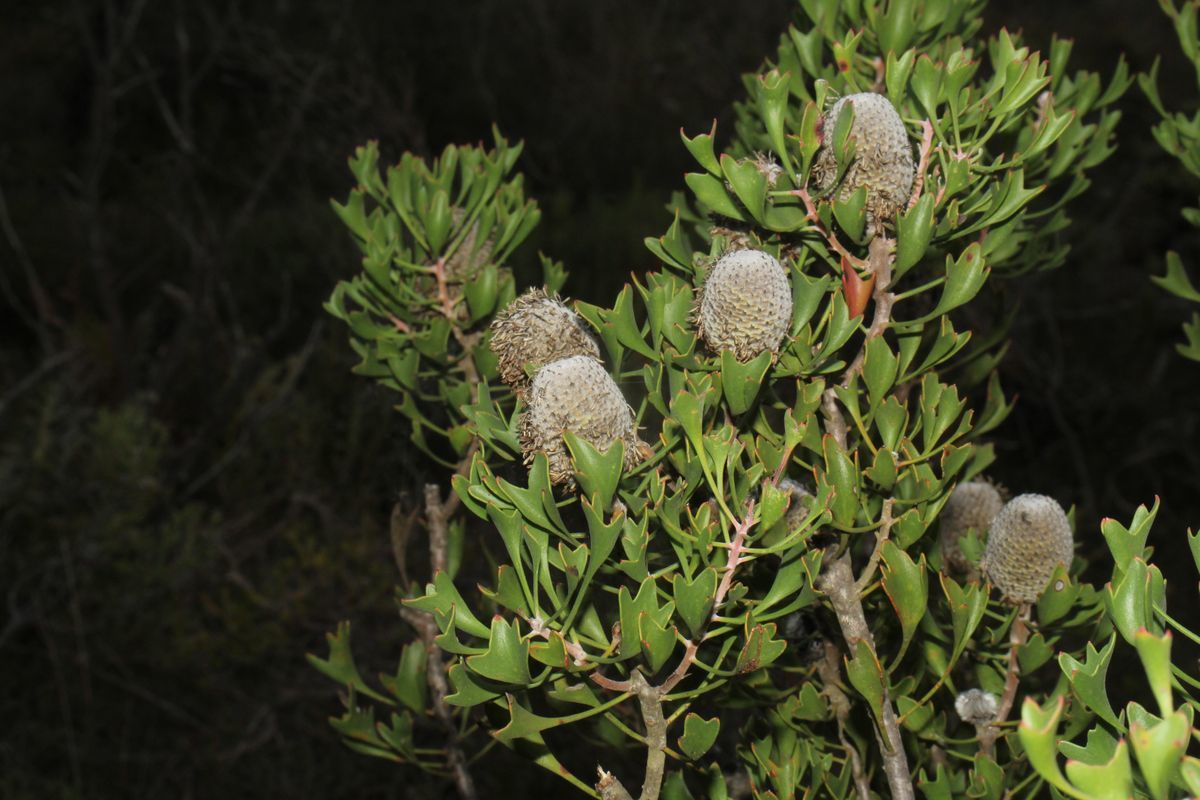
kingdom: Plantae
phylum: Tracheophyta
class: Magnoliopsida
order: Proteales
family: Proteaceae
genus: Isopogon
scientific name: Isopogon trilobus
